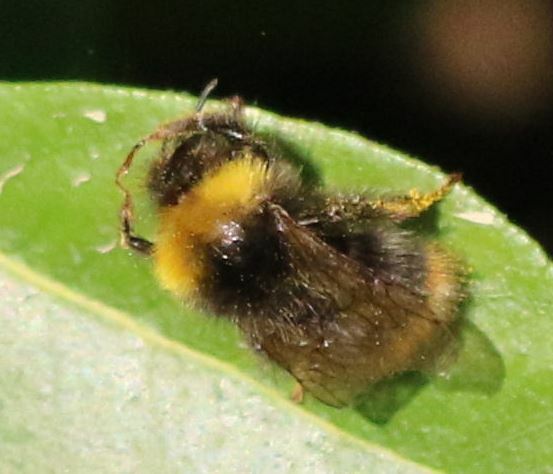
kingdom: Animalia
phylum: Arthropoda
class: Insecta
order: Hymenoptera
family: Apidae
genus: Bombus
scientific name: Bombus pratorum
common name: Early humble-bee
